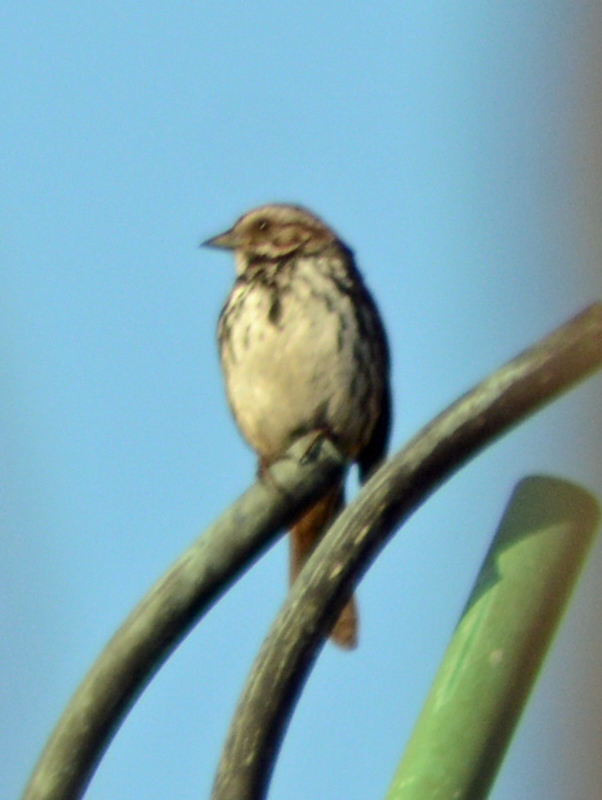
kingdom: Animalia
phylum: Chordata
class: Aves
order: Passeriformes
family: Passerellidae
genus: Melospiza
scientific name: Melospiza melodia
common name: Song sparrow
